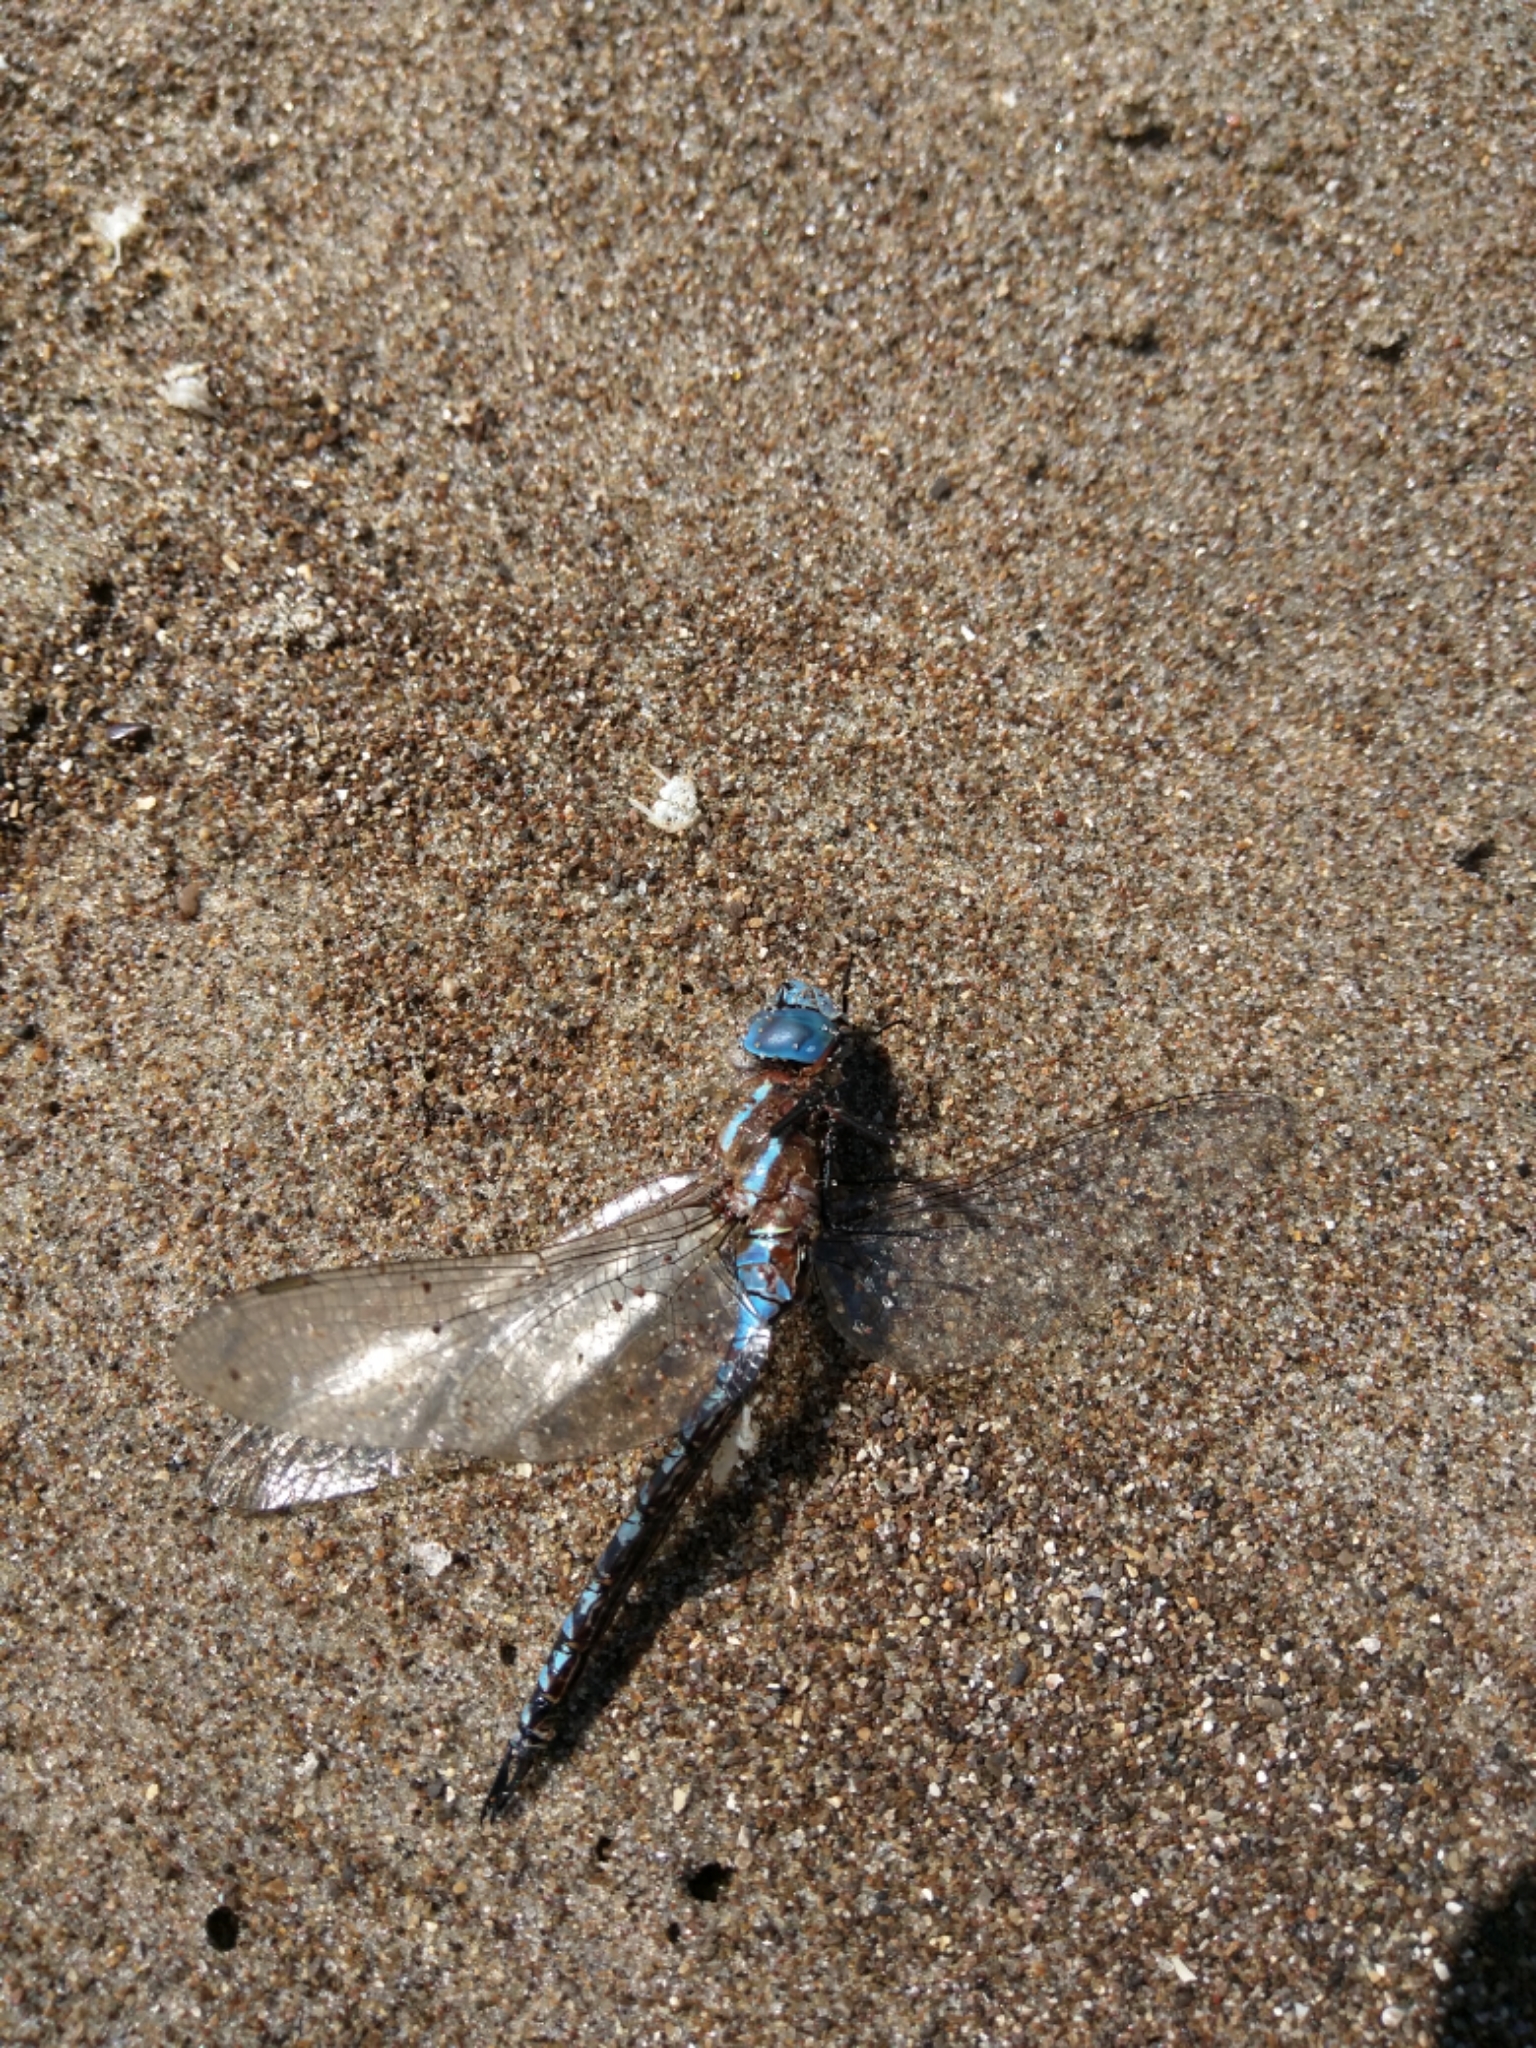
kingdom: Animalia
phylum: Arthropoda
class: Insecta
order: Odonata
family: Aeshnidae
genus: Rhionaeschna
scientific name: Rhionaeschna multicolor
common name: Blue-eyed darner
